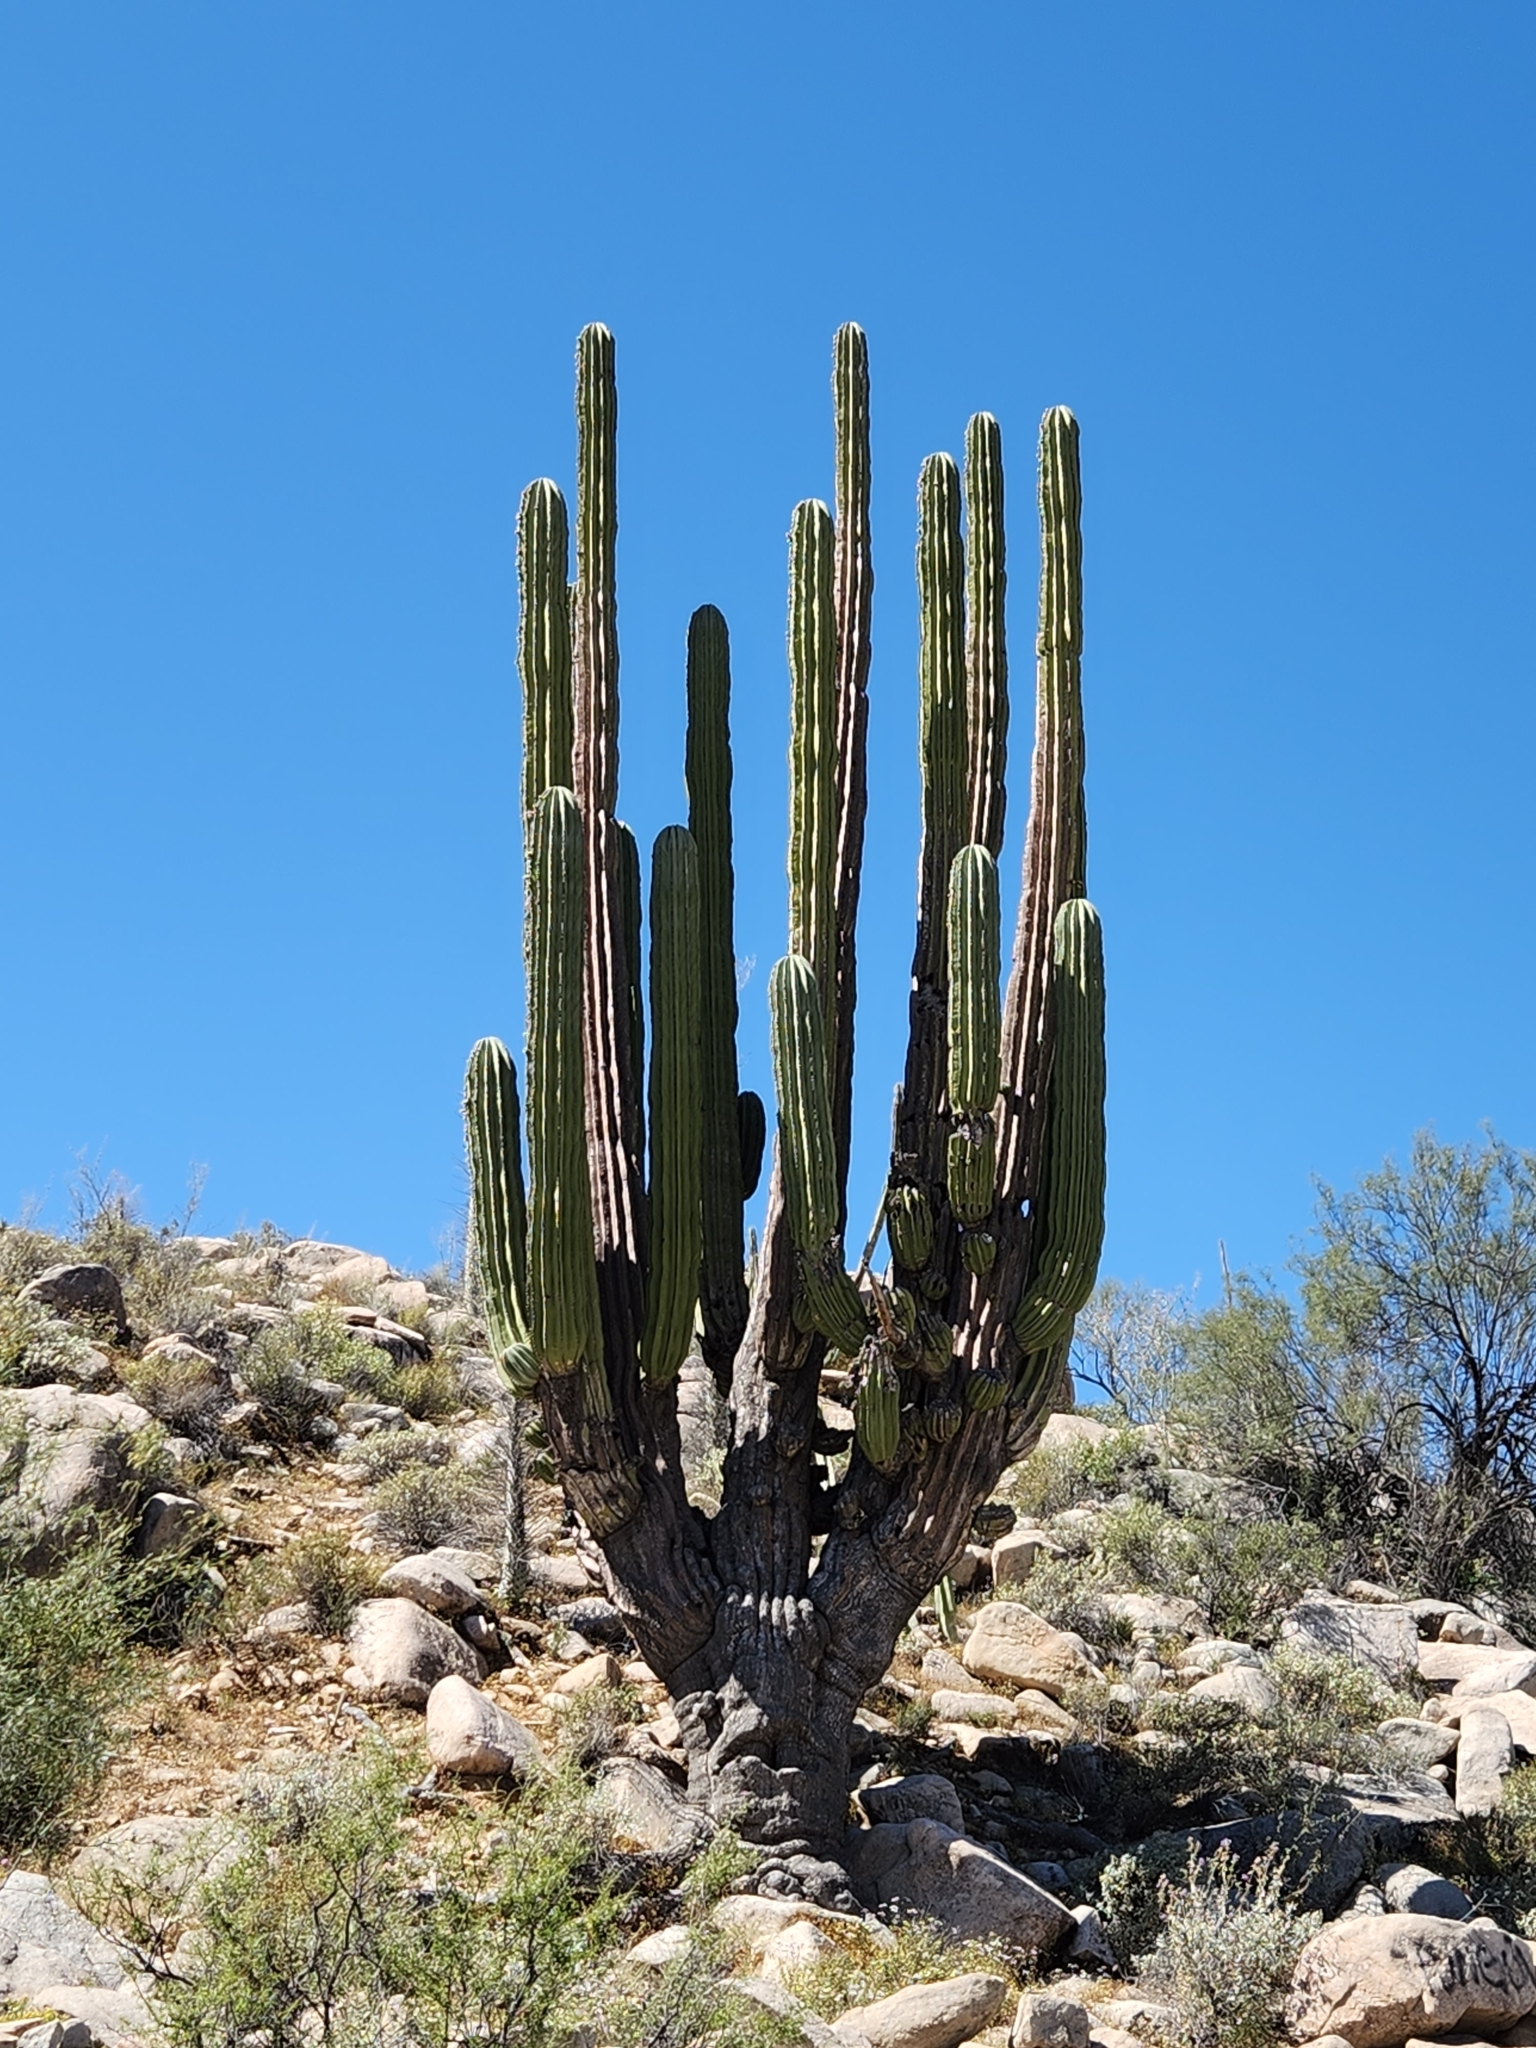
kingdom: Plantae
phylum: Tracheophyta
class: Magnoliopsida
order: Caryophyllales
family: Cactaceae
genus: Pachycereus
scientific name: Pachycereus pringlei
